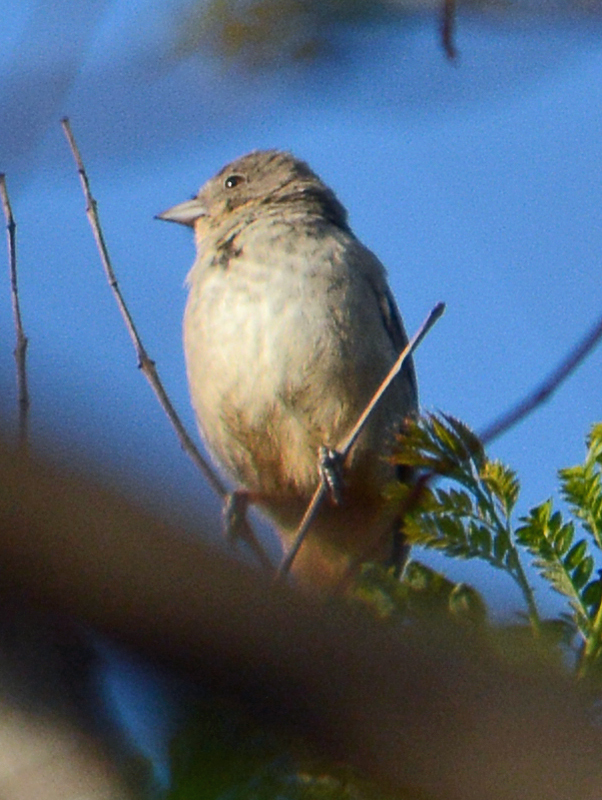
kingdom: Animalia
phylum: Chordata
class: Aves
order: Passeriformes
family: Passerellidae
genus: Melozone
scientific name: Melozone fusca
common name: Canyon towhee
